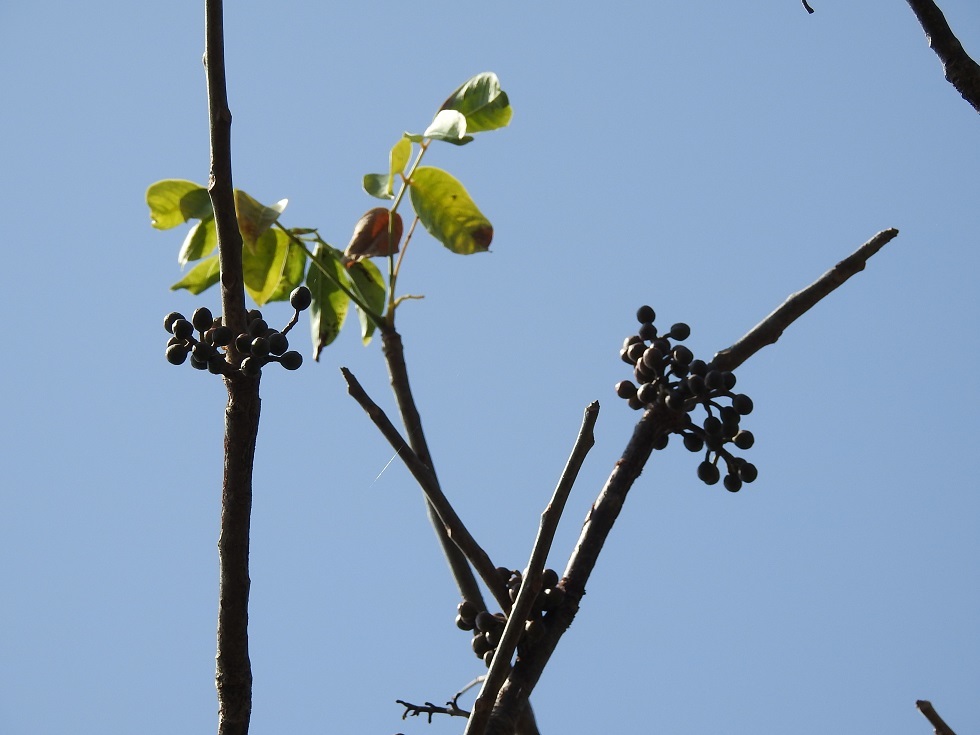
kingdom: Plantae
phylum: Tracheophyta
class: Magnoliopsida
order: Sapindales
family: Burseraceae
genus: Bursera
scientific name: Bursera simaruba
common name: Turpentine tree
